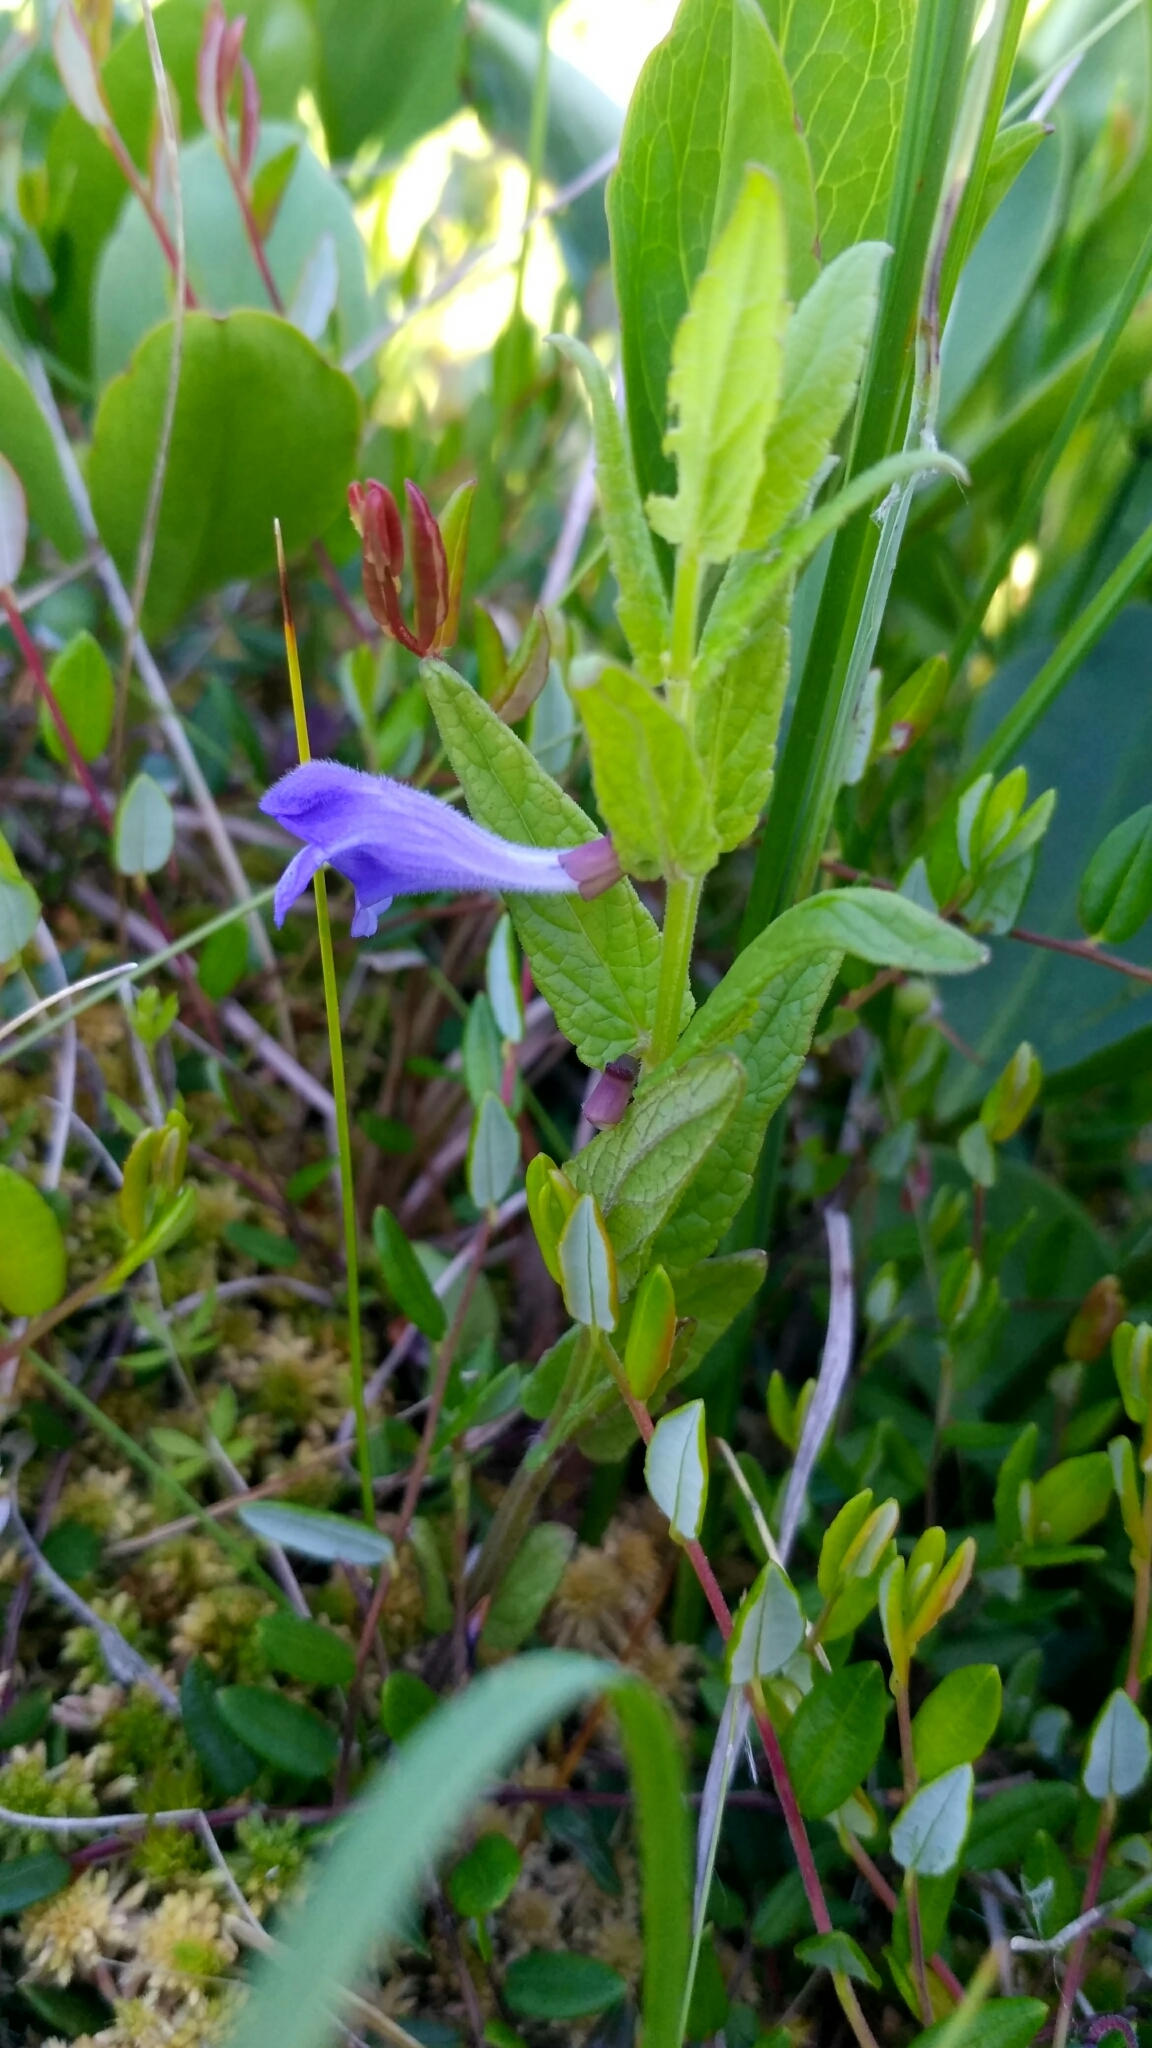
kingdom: Plantae
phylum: Tracheophyta
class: Magnoliopsida
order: Lamiales
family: Lamiaceae
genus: Scutellaria
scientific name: Scutellaria galericulata
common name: Skullcap
